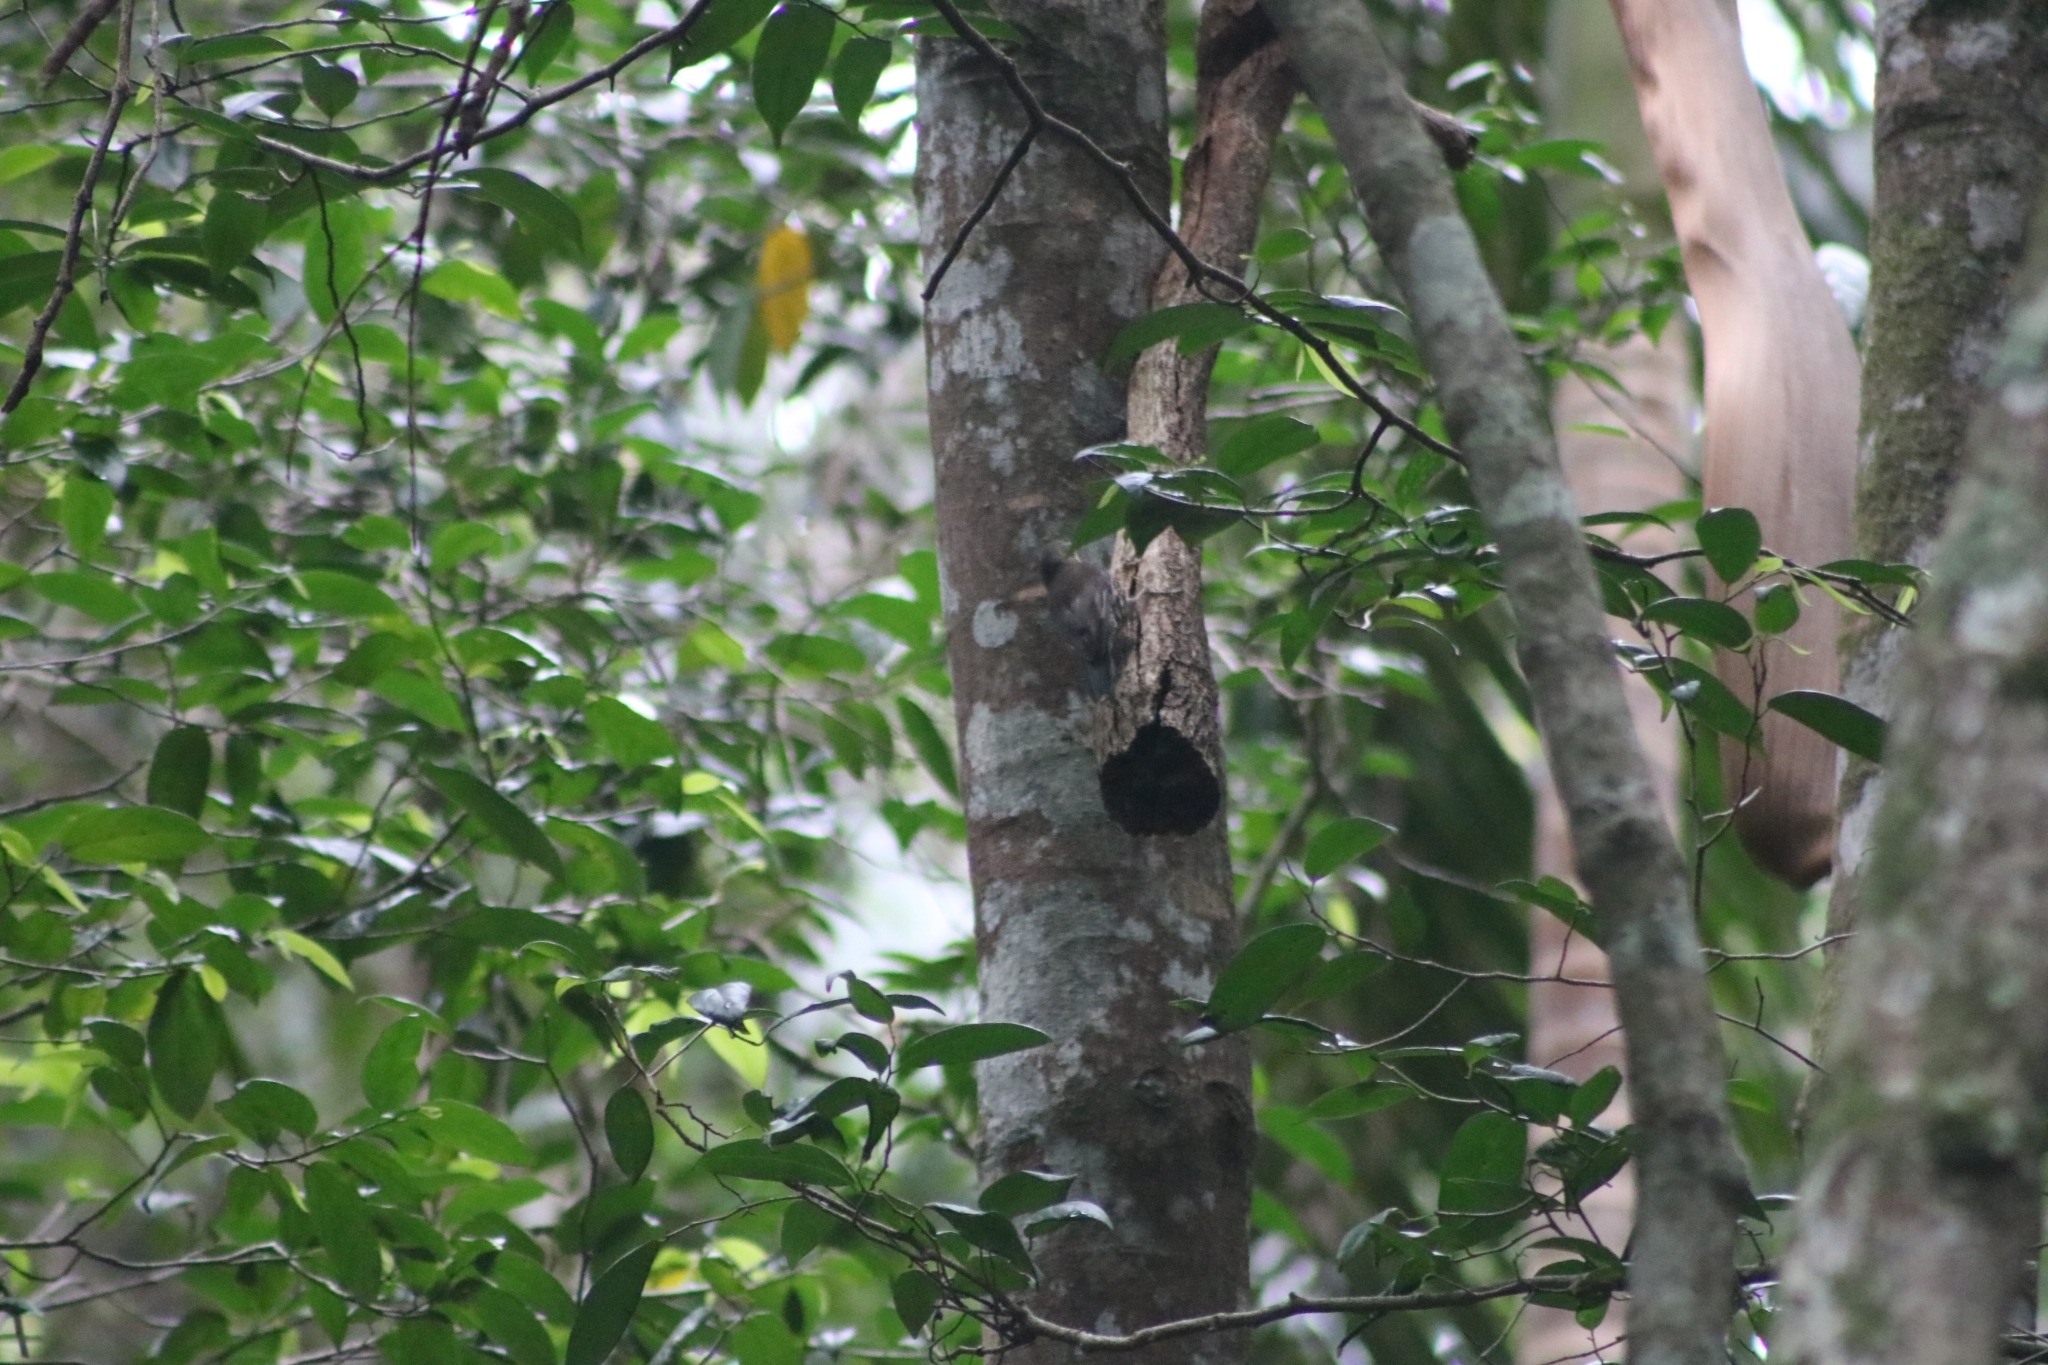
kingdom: Animalia
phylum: Chordata
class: Aves
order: Passeriformes
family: Climacteridae
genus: Cormobates
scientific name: Cormobates leucophaea
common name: White-throated treecreeper
